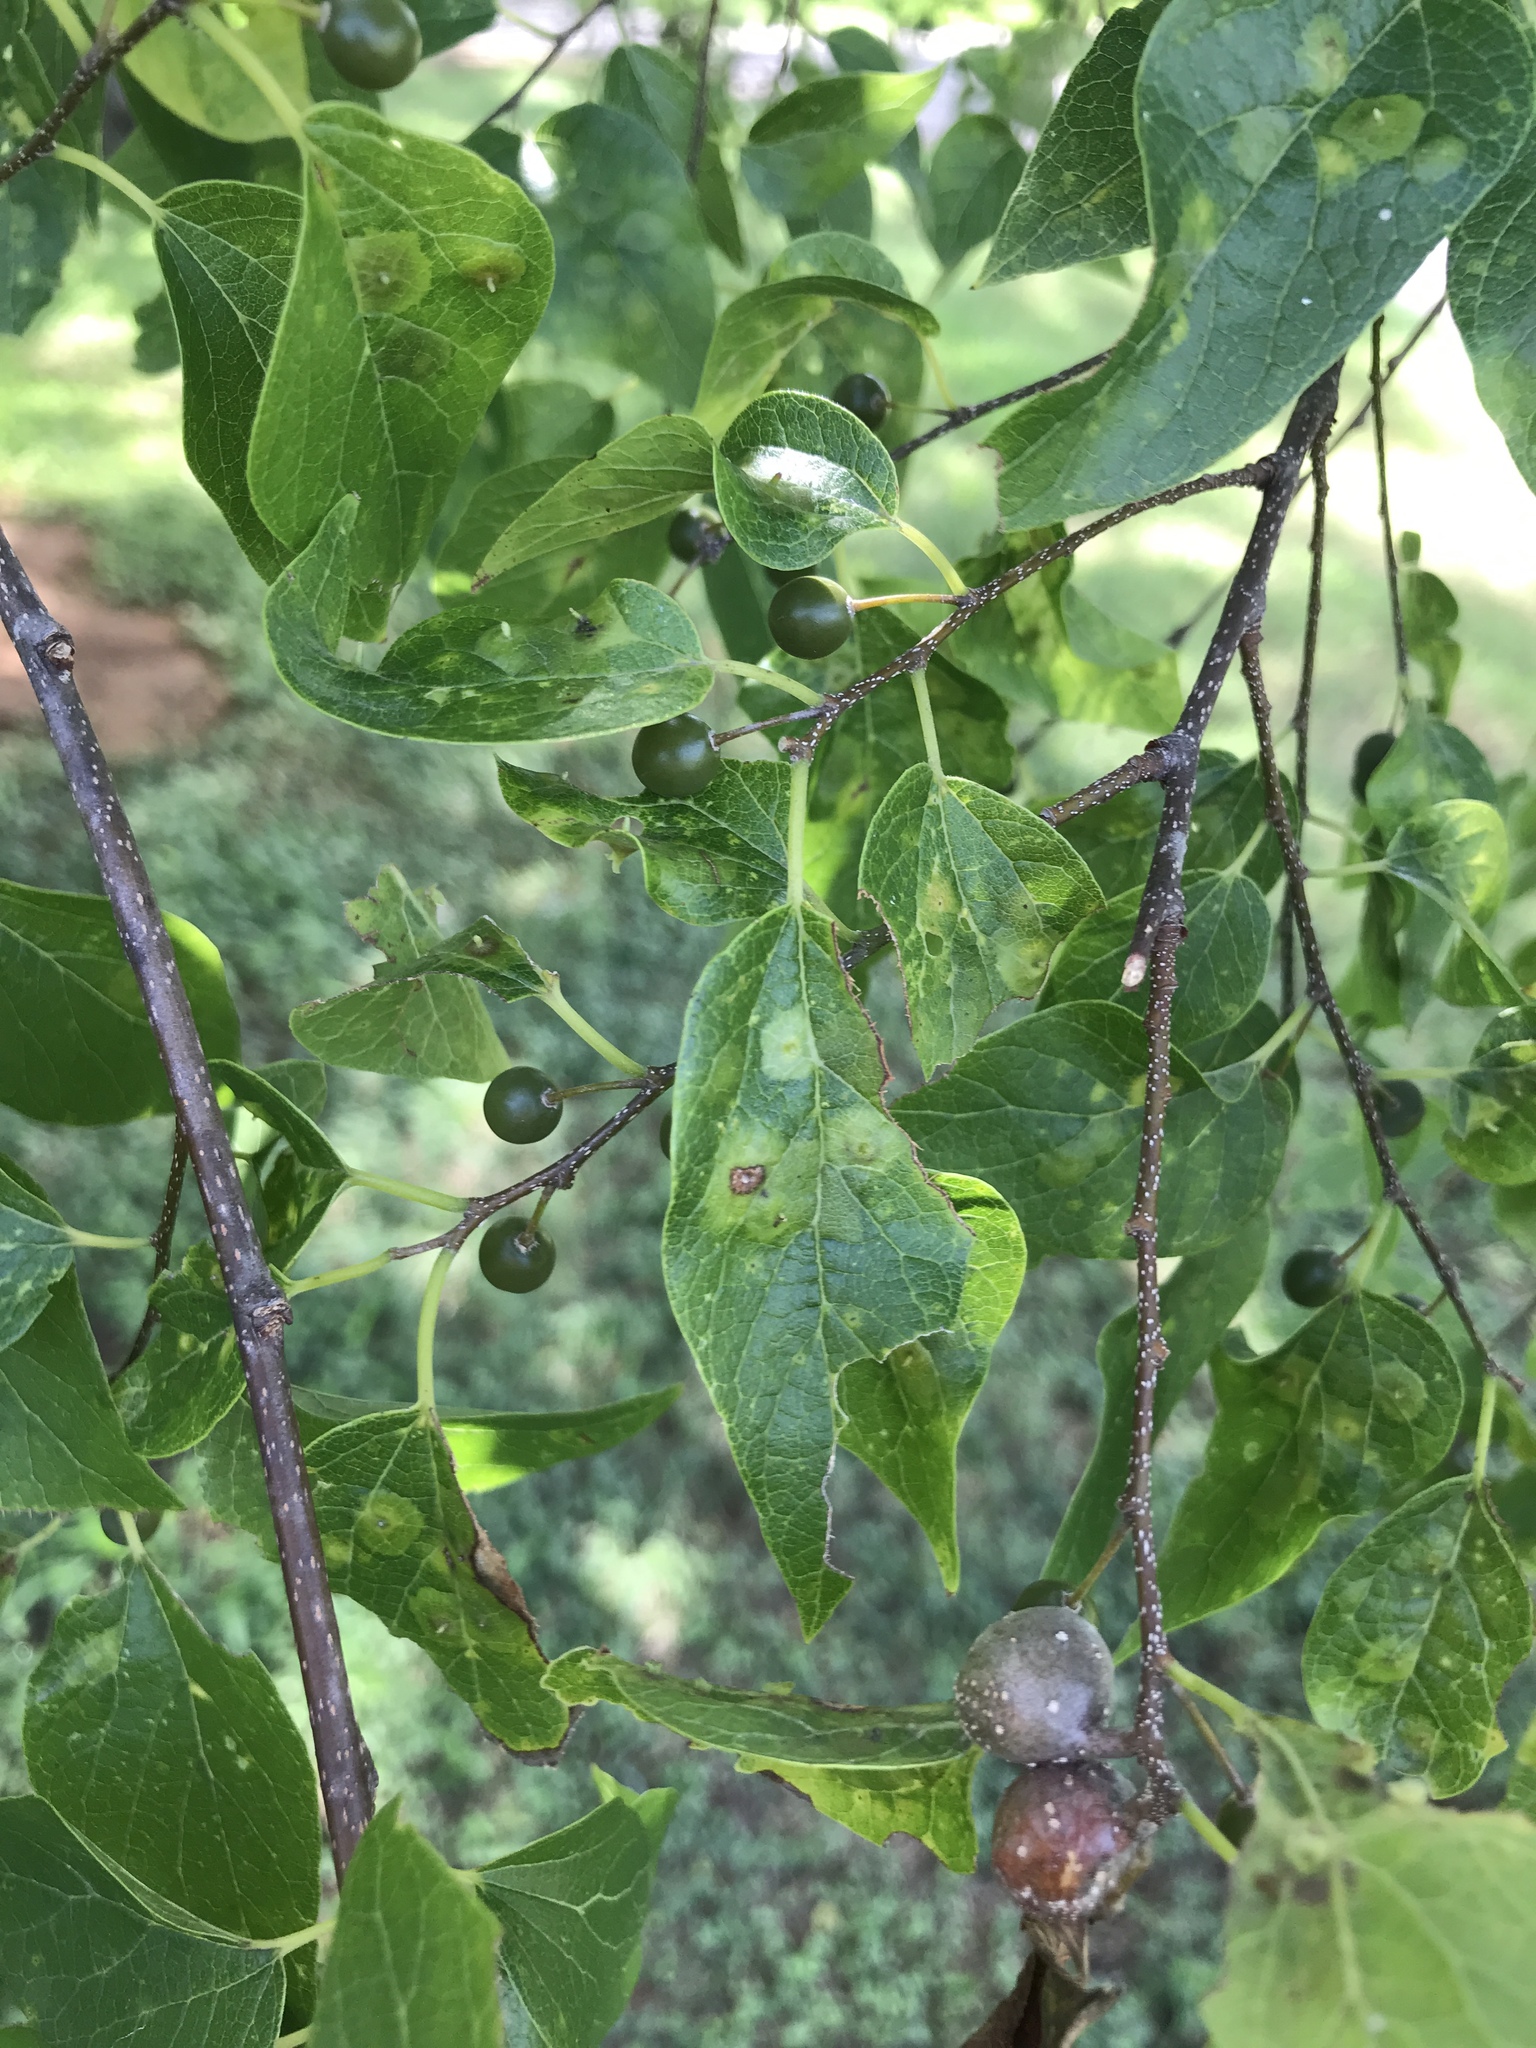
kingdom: Plantae
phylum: Tracheophyta
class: Magnoliopsida
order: Rosales
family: Cannabaceae
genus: Celtis
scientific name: Celtis laevigata
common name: Sugarberry
